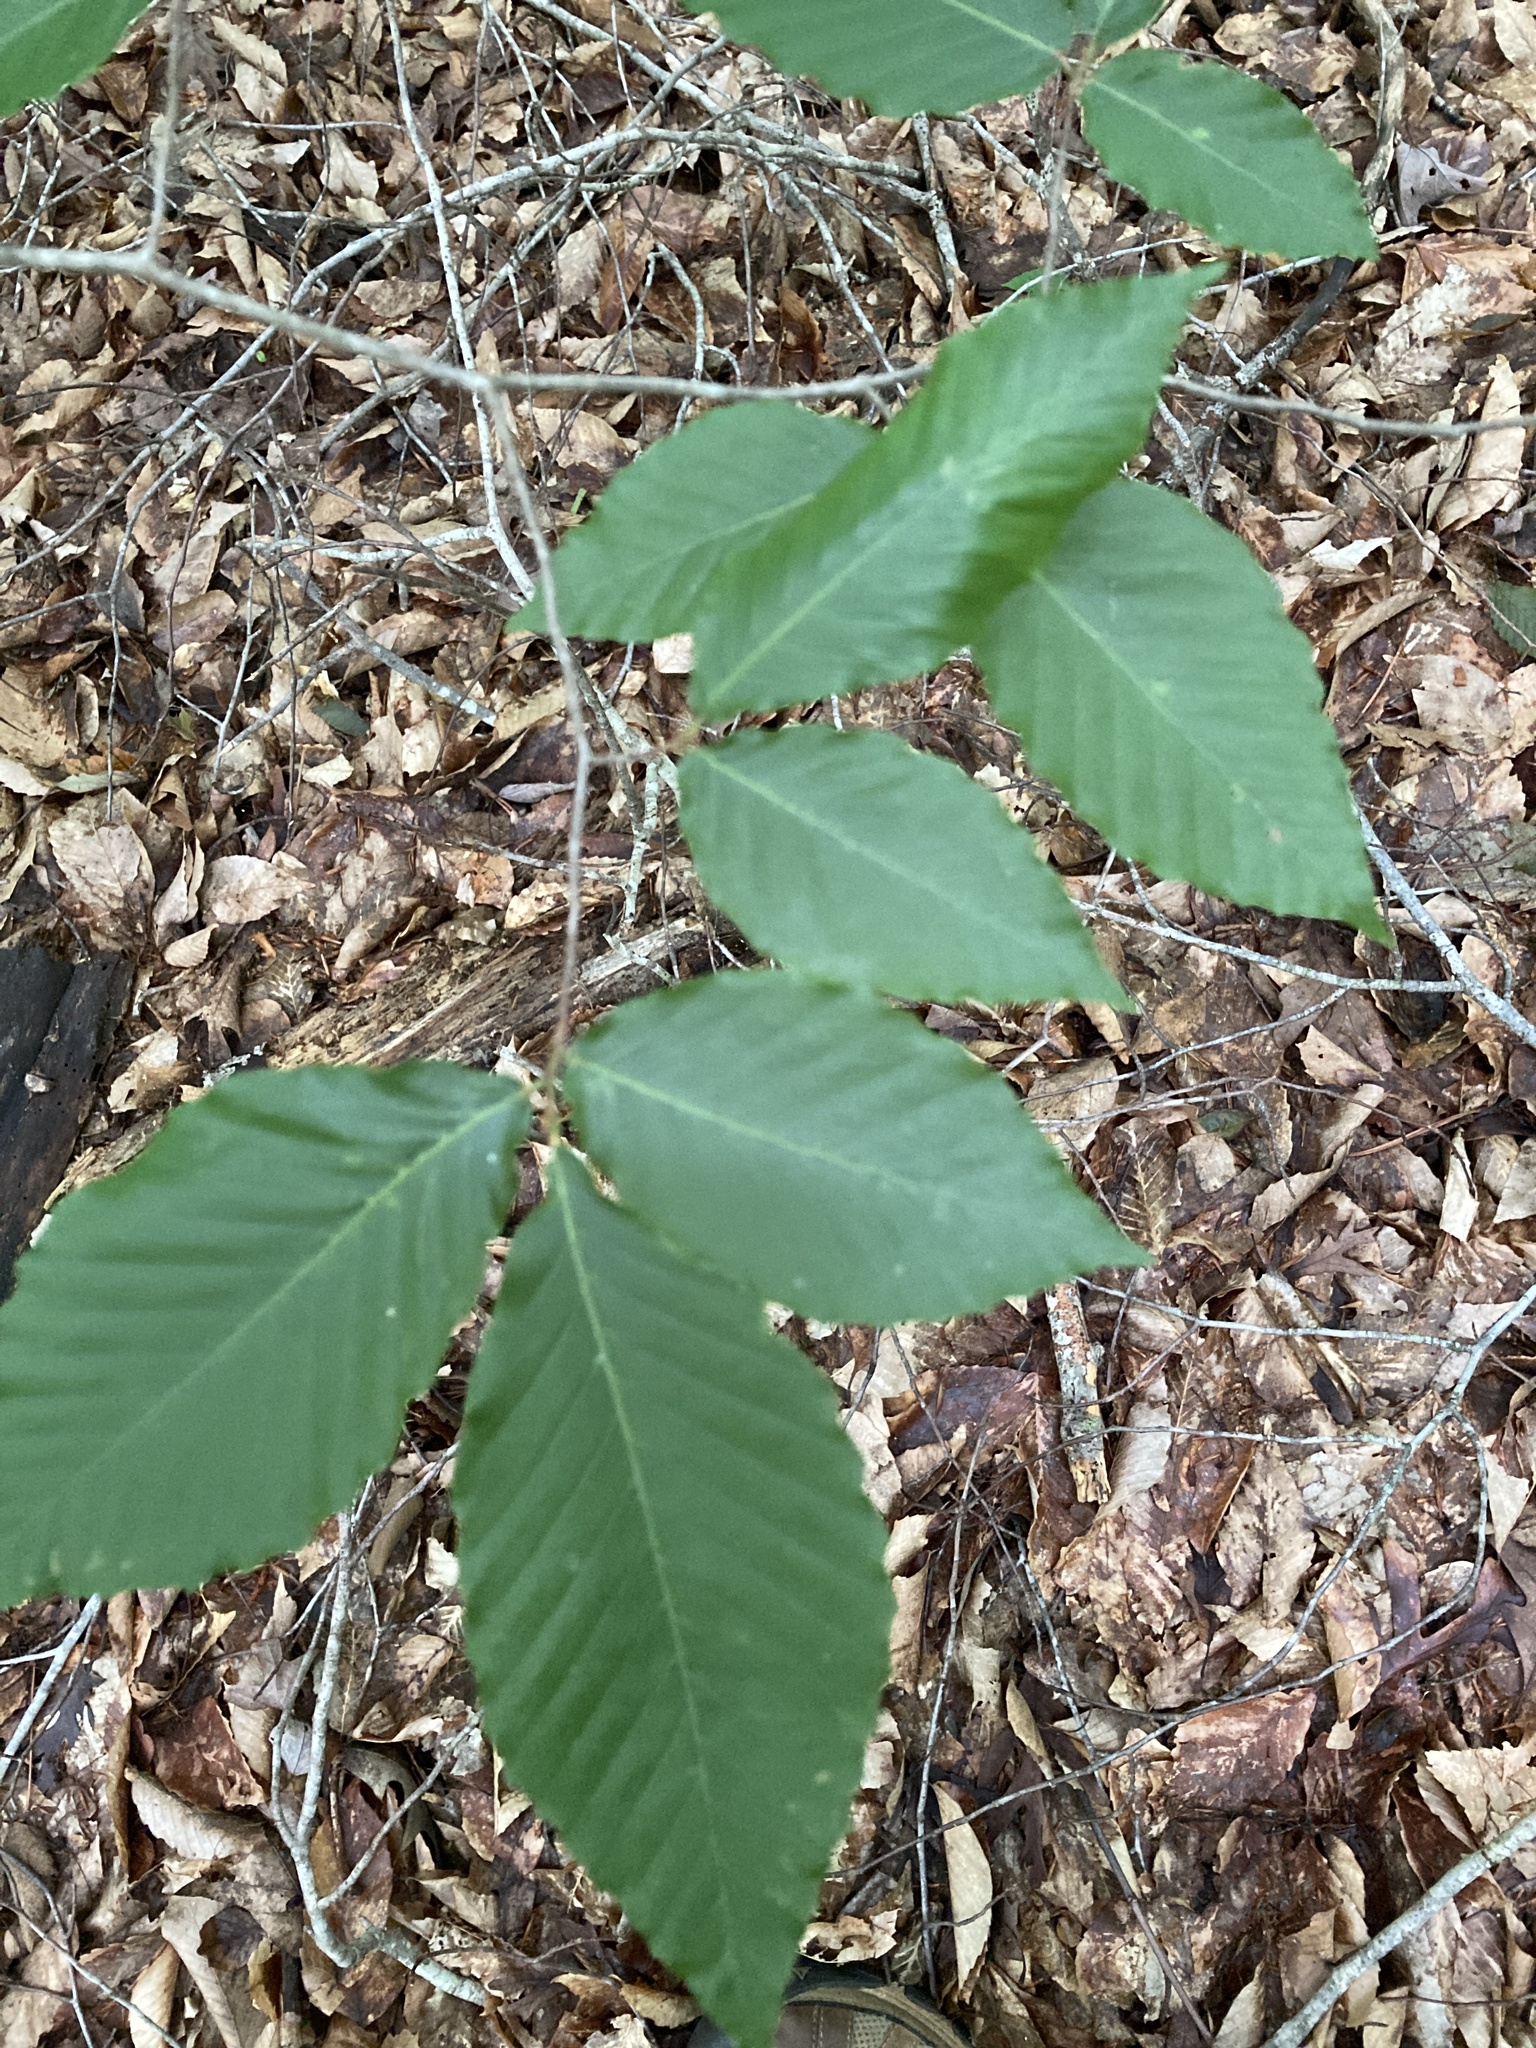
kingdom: Plantae
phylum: Tracheophyta
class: Magnoliopsida
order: Fagales
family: Fagaceae
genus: Fagus
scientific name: Fagus grandifolia
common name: American beech
